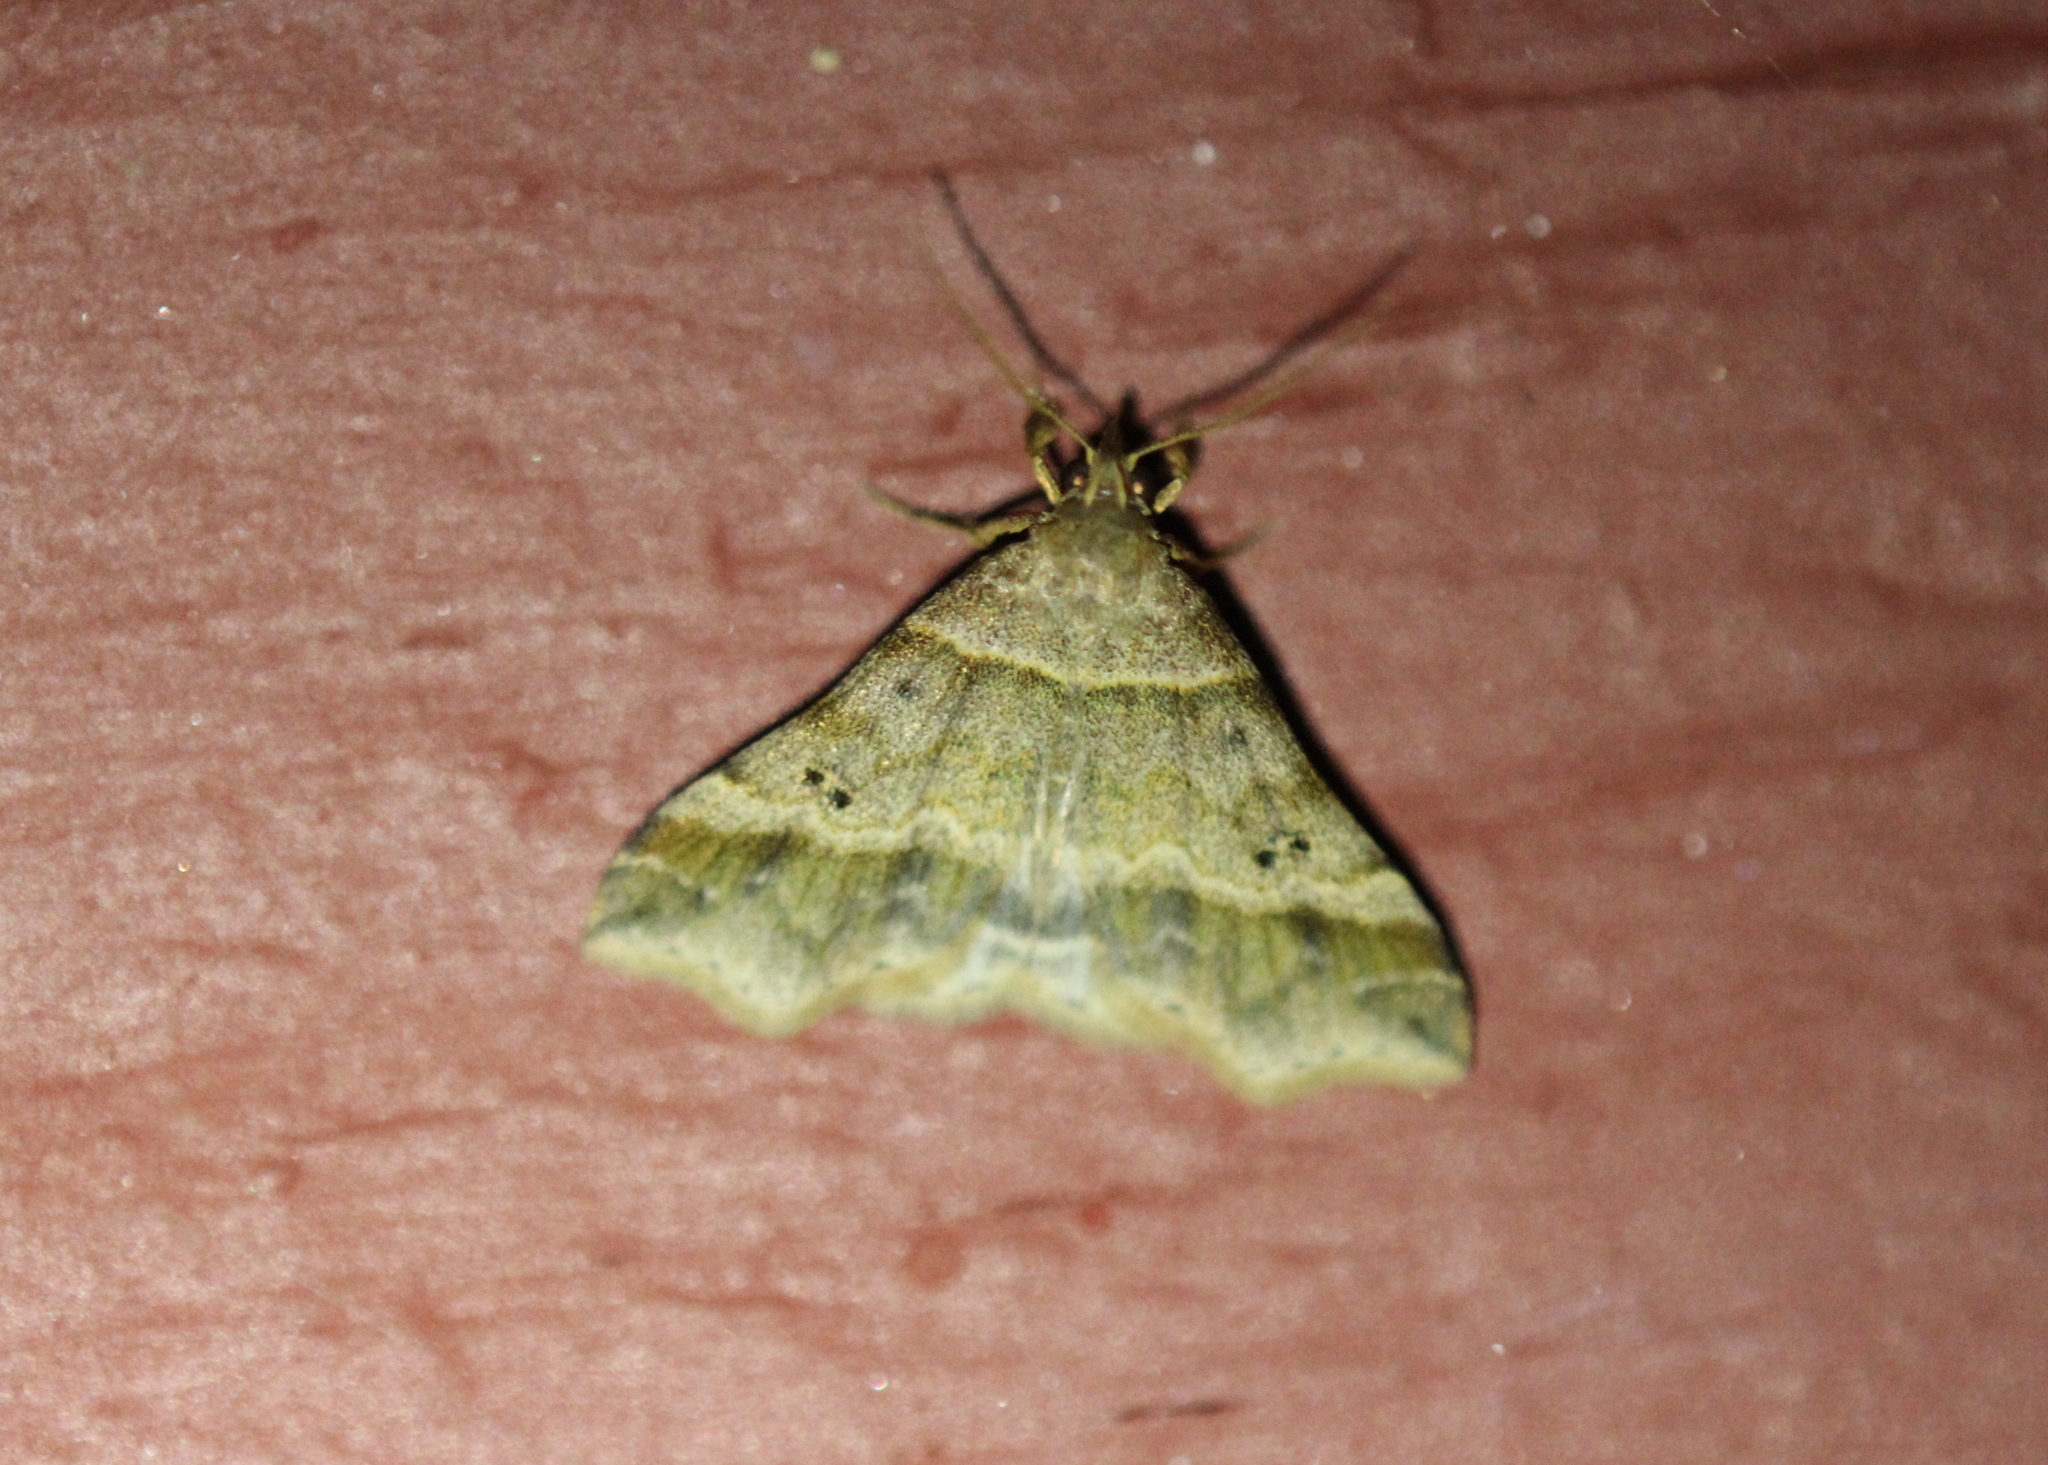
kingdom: Animalia
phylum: Arthropoda
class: Insecta
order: Lepidoptera
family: Erebidae
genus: Phaeolita
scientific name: Phaeolita pyramusalis
